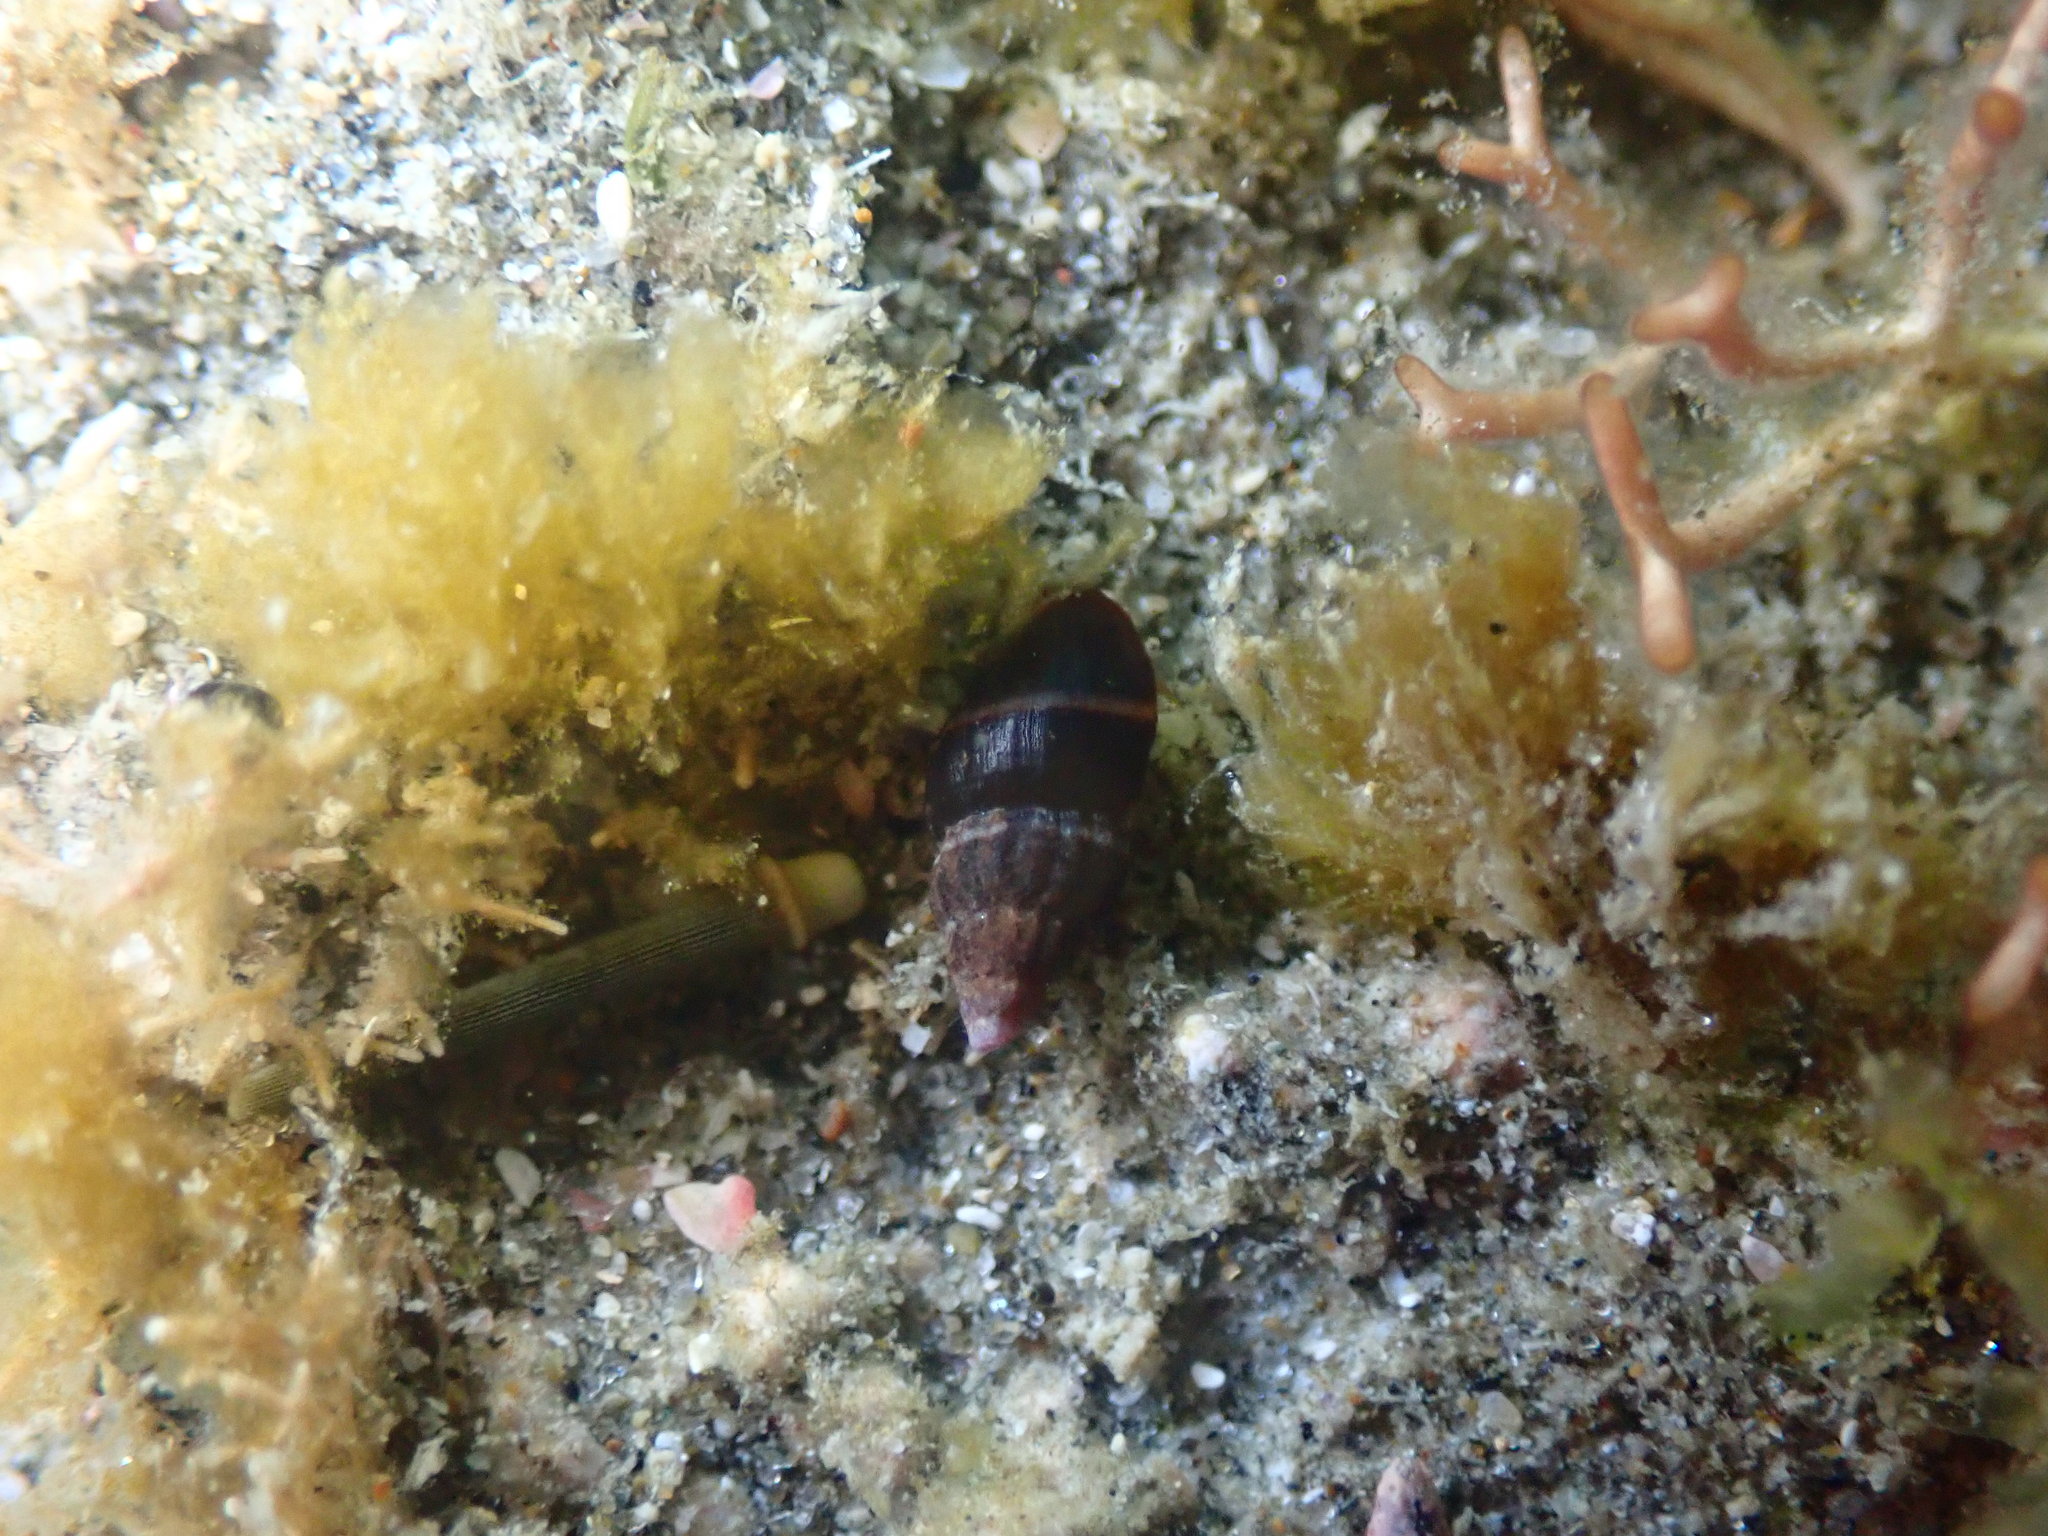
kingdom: Animalia
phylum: Mollusca
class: Gastropoda
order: Neogastropoda
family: Costellariidae
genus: Austromitra
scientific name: Austromitra rubiginosa
